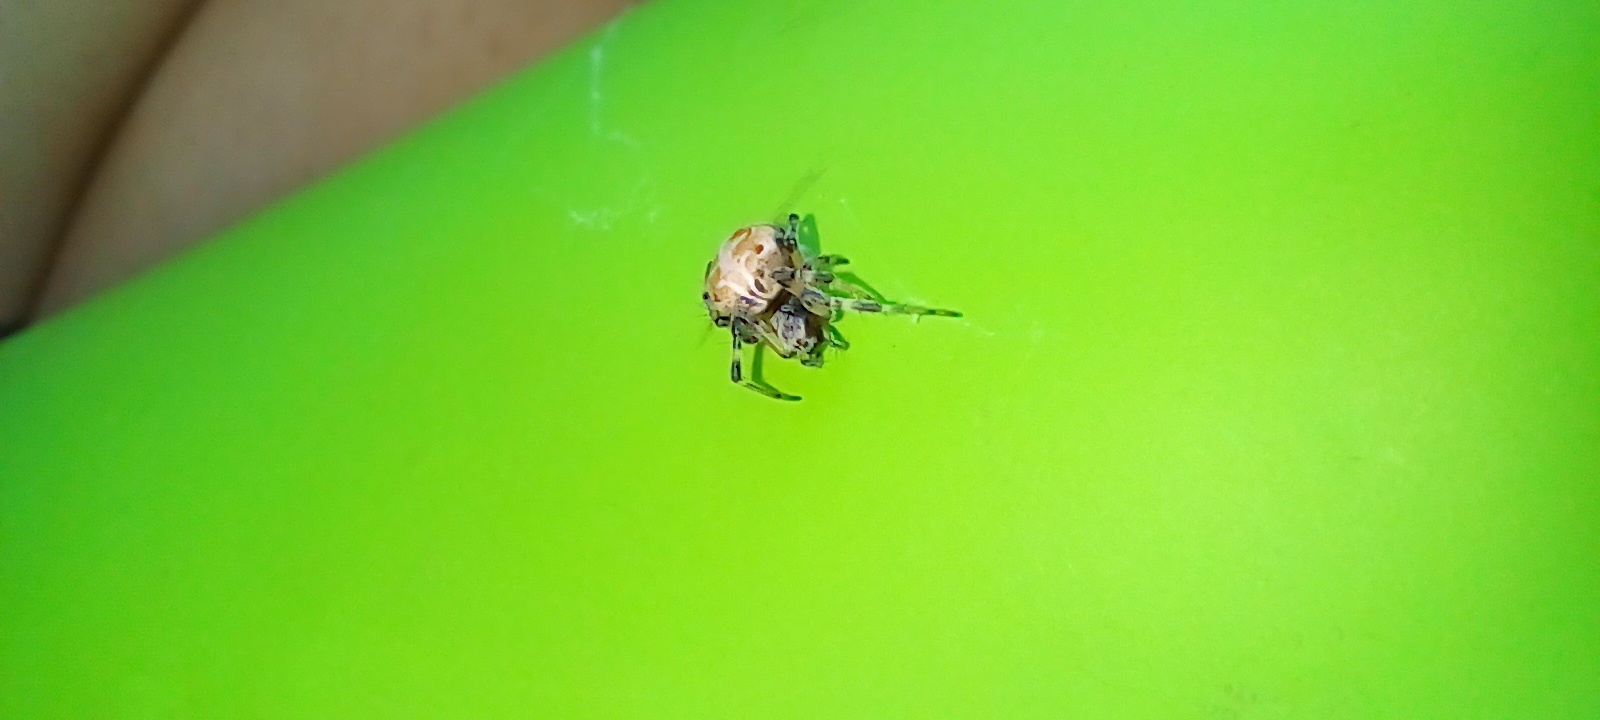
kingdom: Animalia
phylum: Arthropoda
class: Arachnida
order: Araneae
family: Araneidae
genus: Metepeira
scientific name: Metepeira
